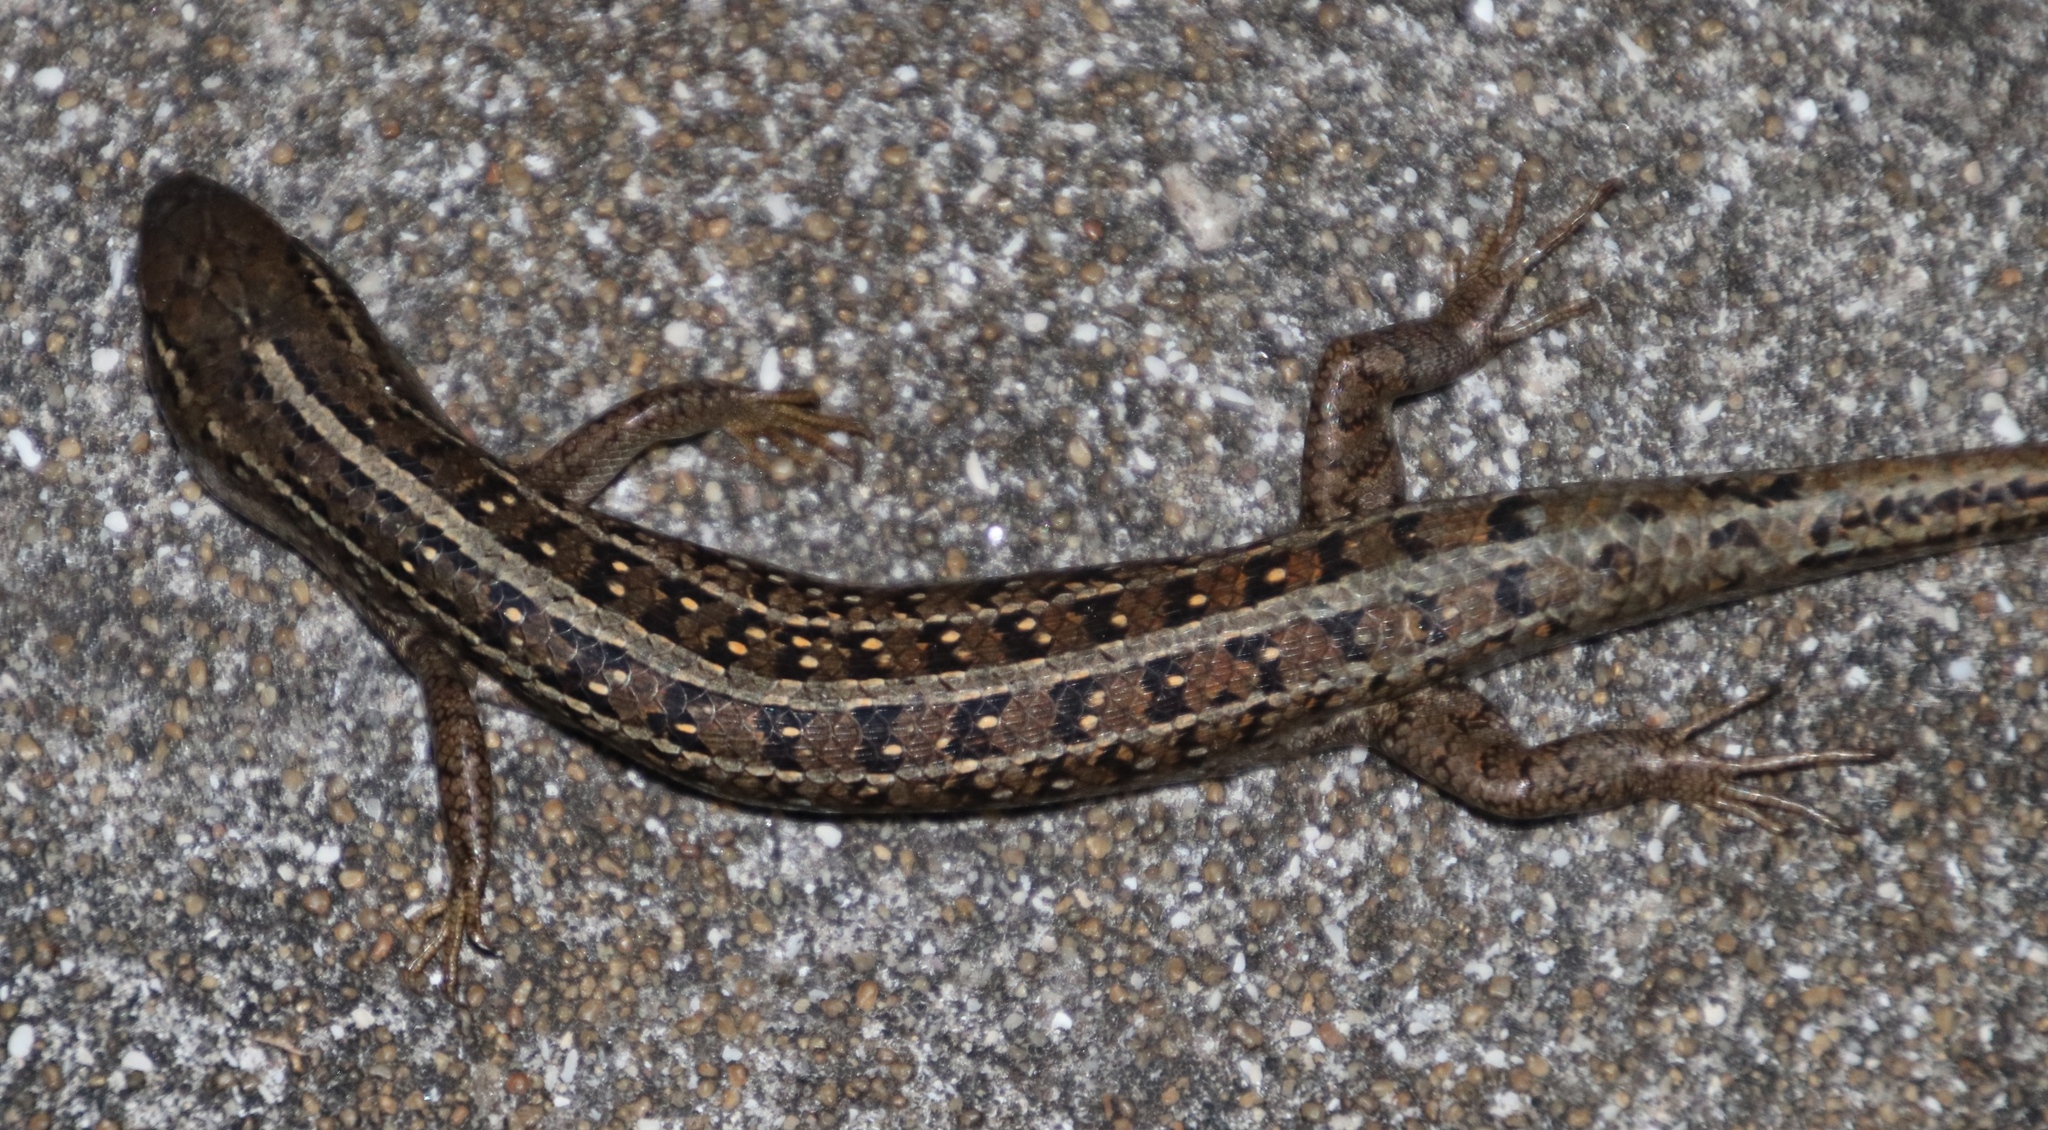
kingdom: Animalia
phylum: Chordata
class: Squamata
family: Scincidae
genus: Trachylepis
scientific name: Trachylepis capensis
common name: Cape skink
